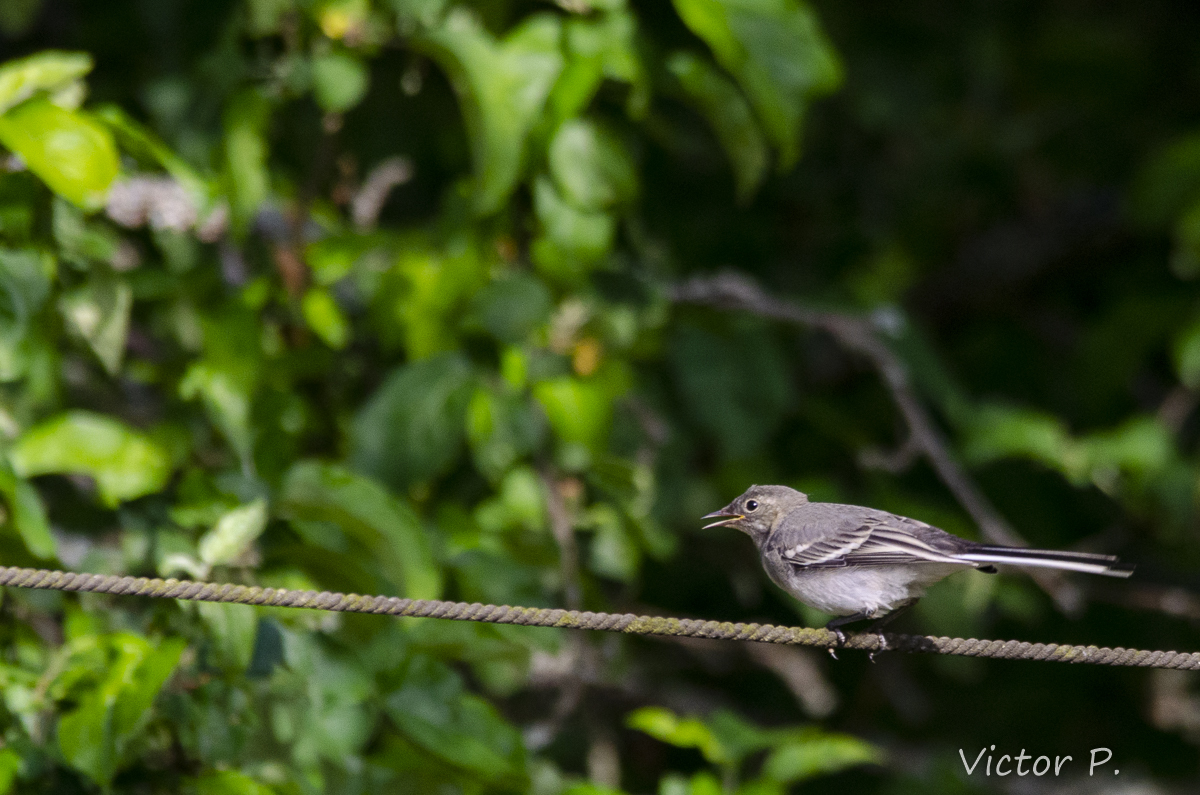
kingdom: Animalia
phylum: Chordata
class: Aves
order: Passeriformes
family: Motacillidae
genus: Motacilla
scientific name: Motacilla alba
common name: White wagtail
